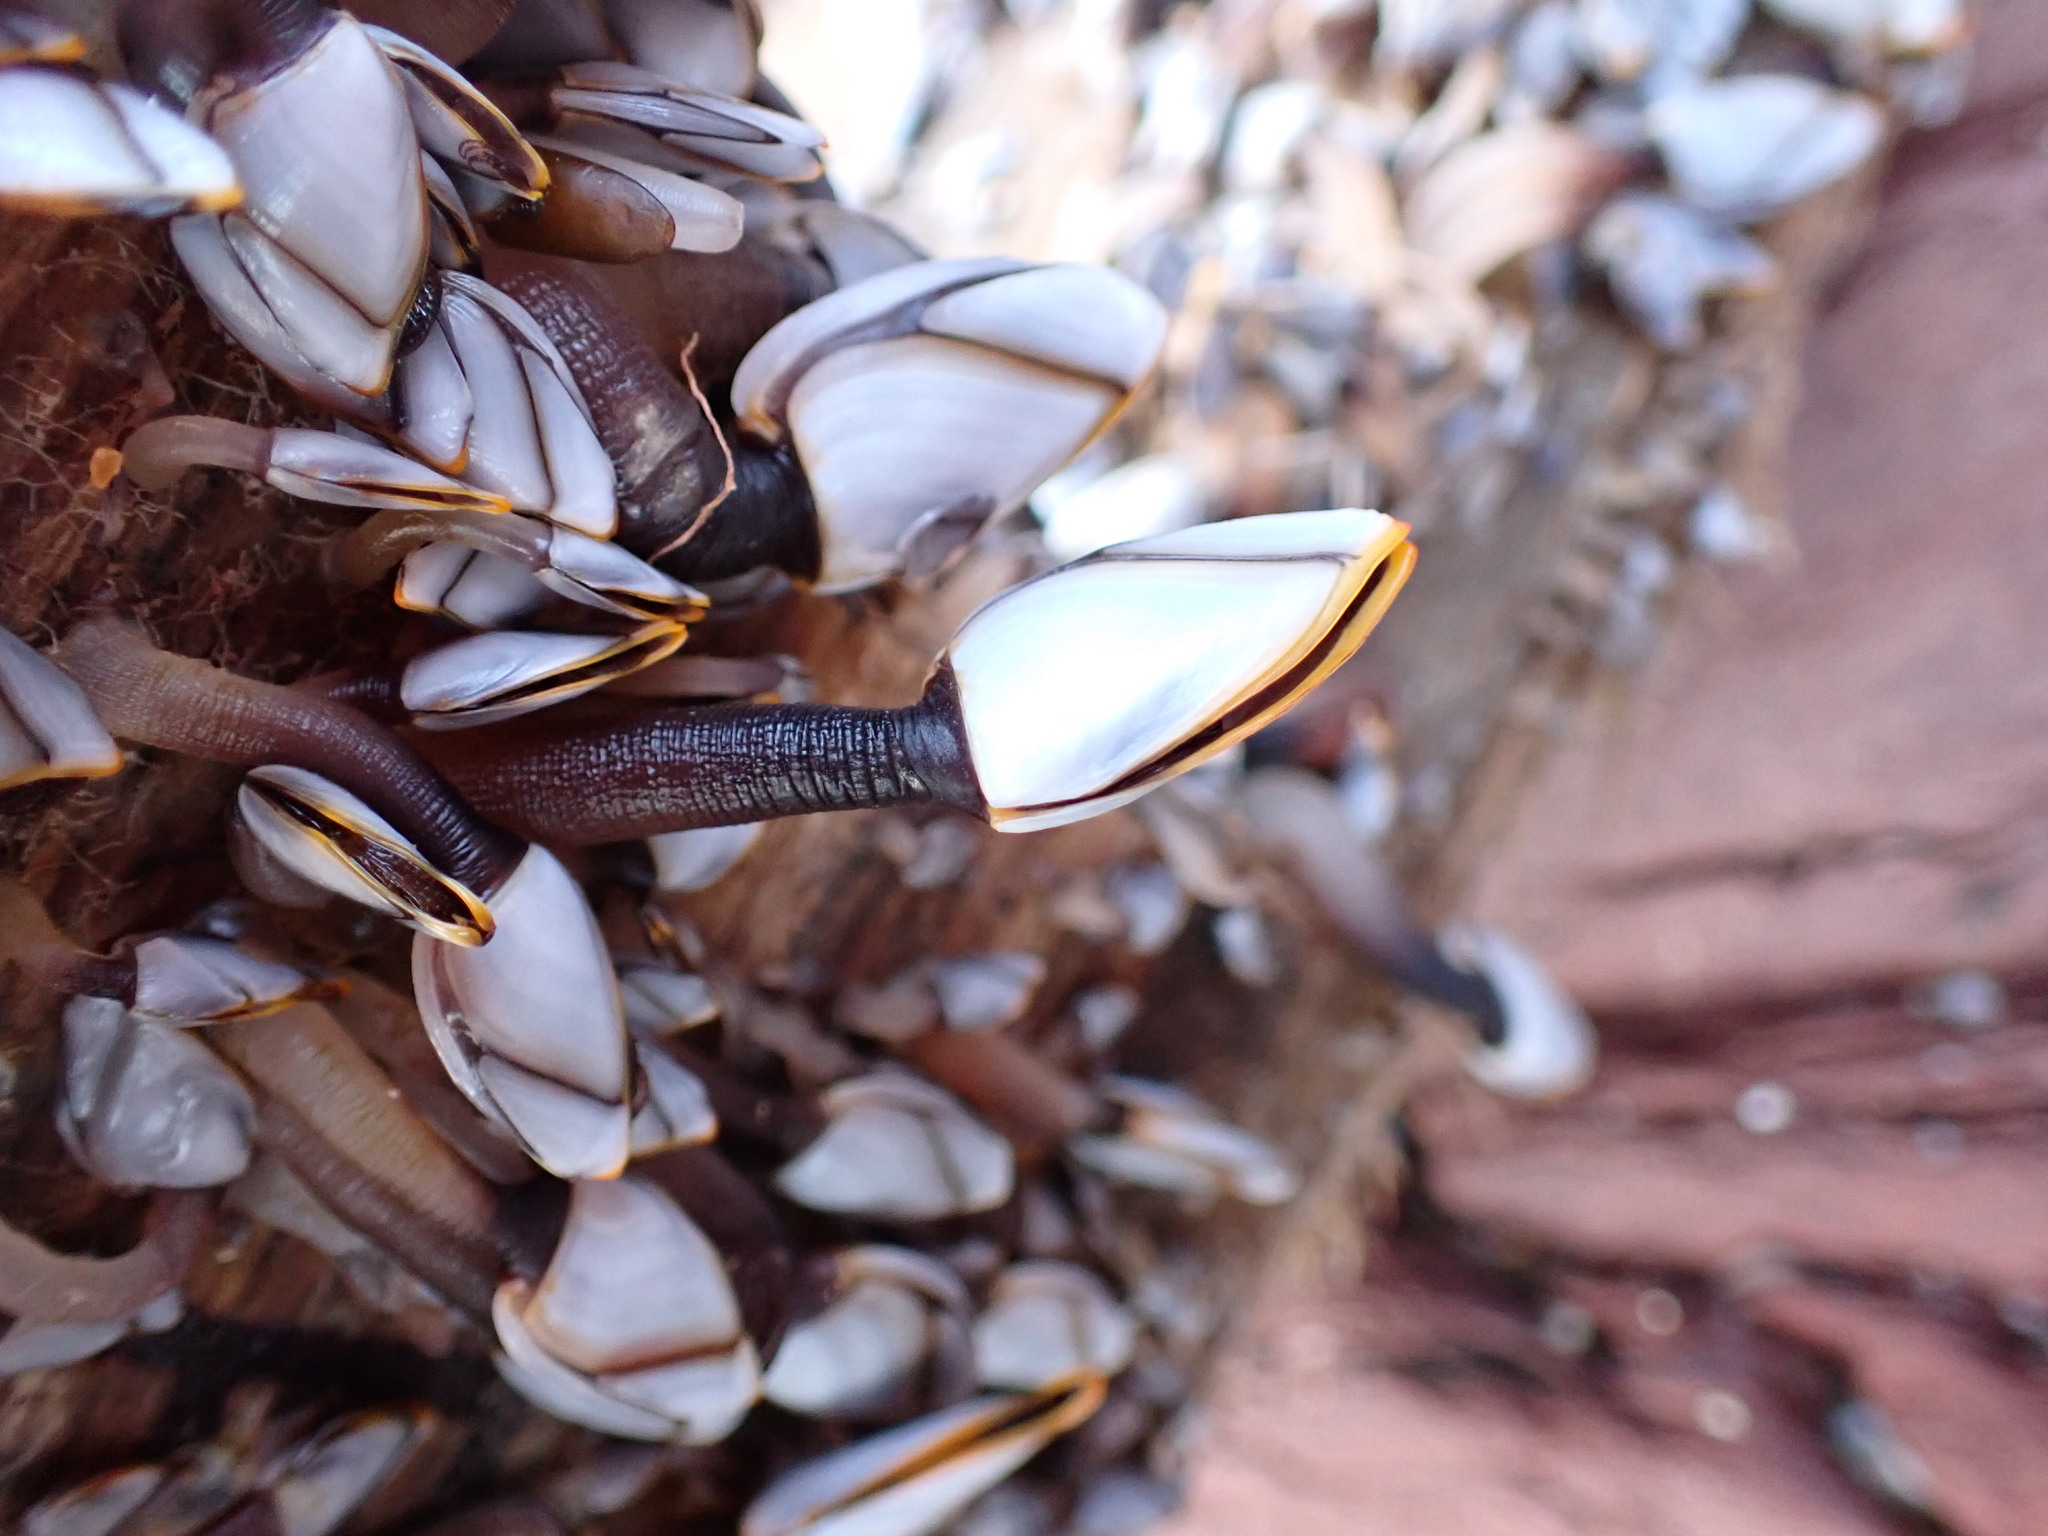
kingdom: Animalia
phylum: Arthropoda
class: Maxillopoda
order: Pedunculata
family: Lepadidae
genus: Lepas
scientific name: Lepas anatifera
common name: Common goose barnacle
